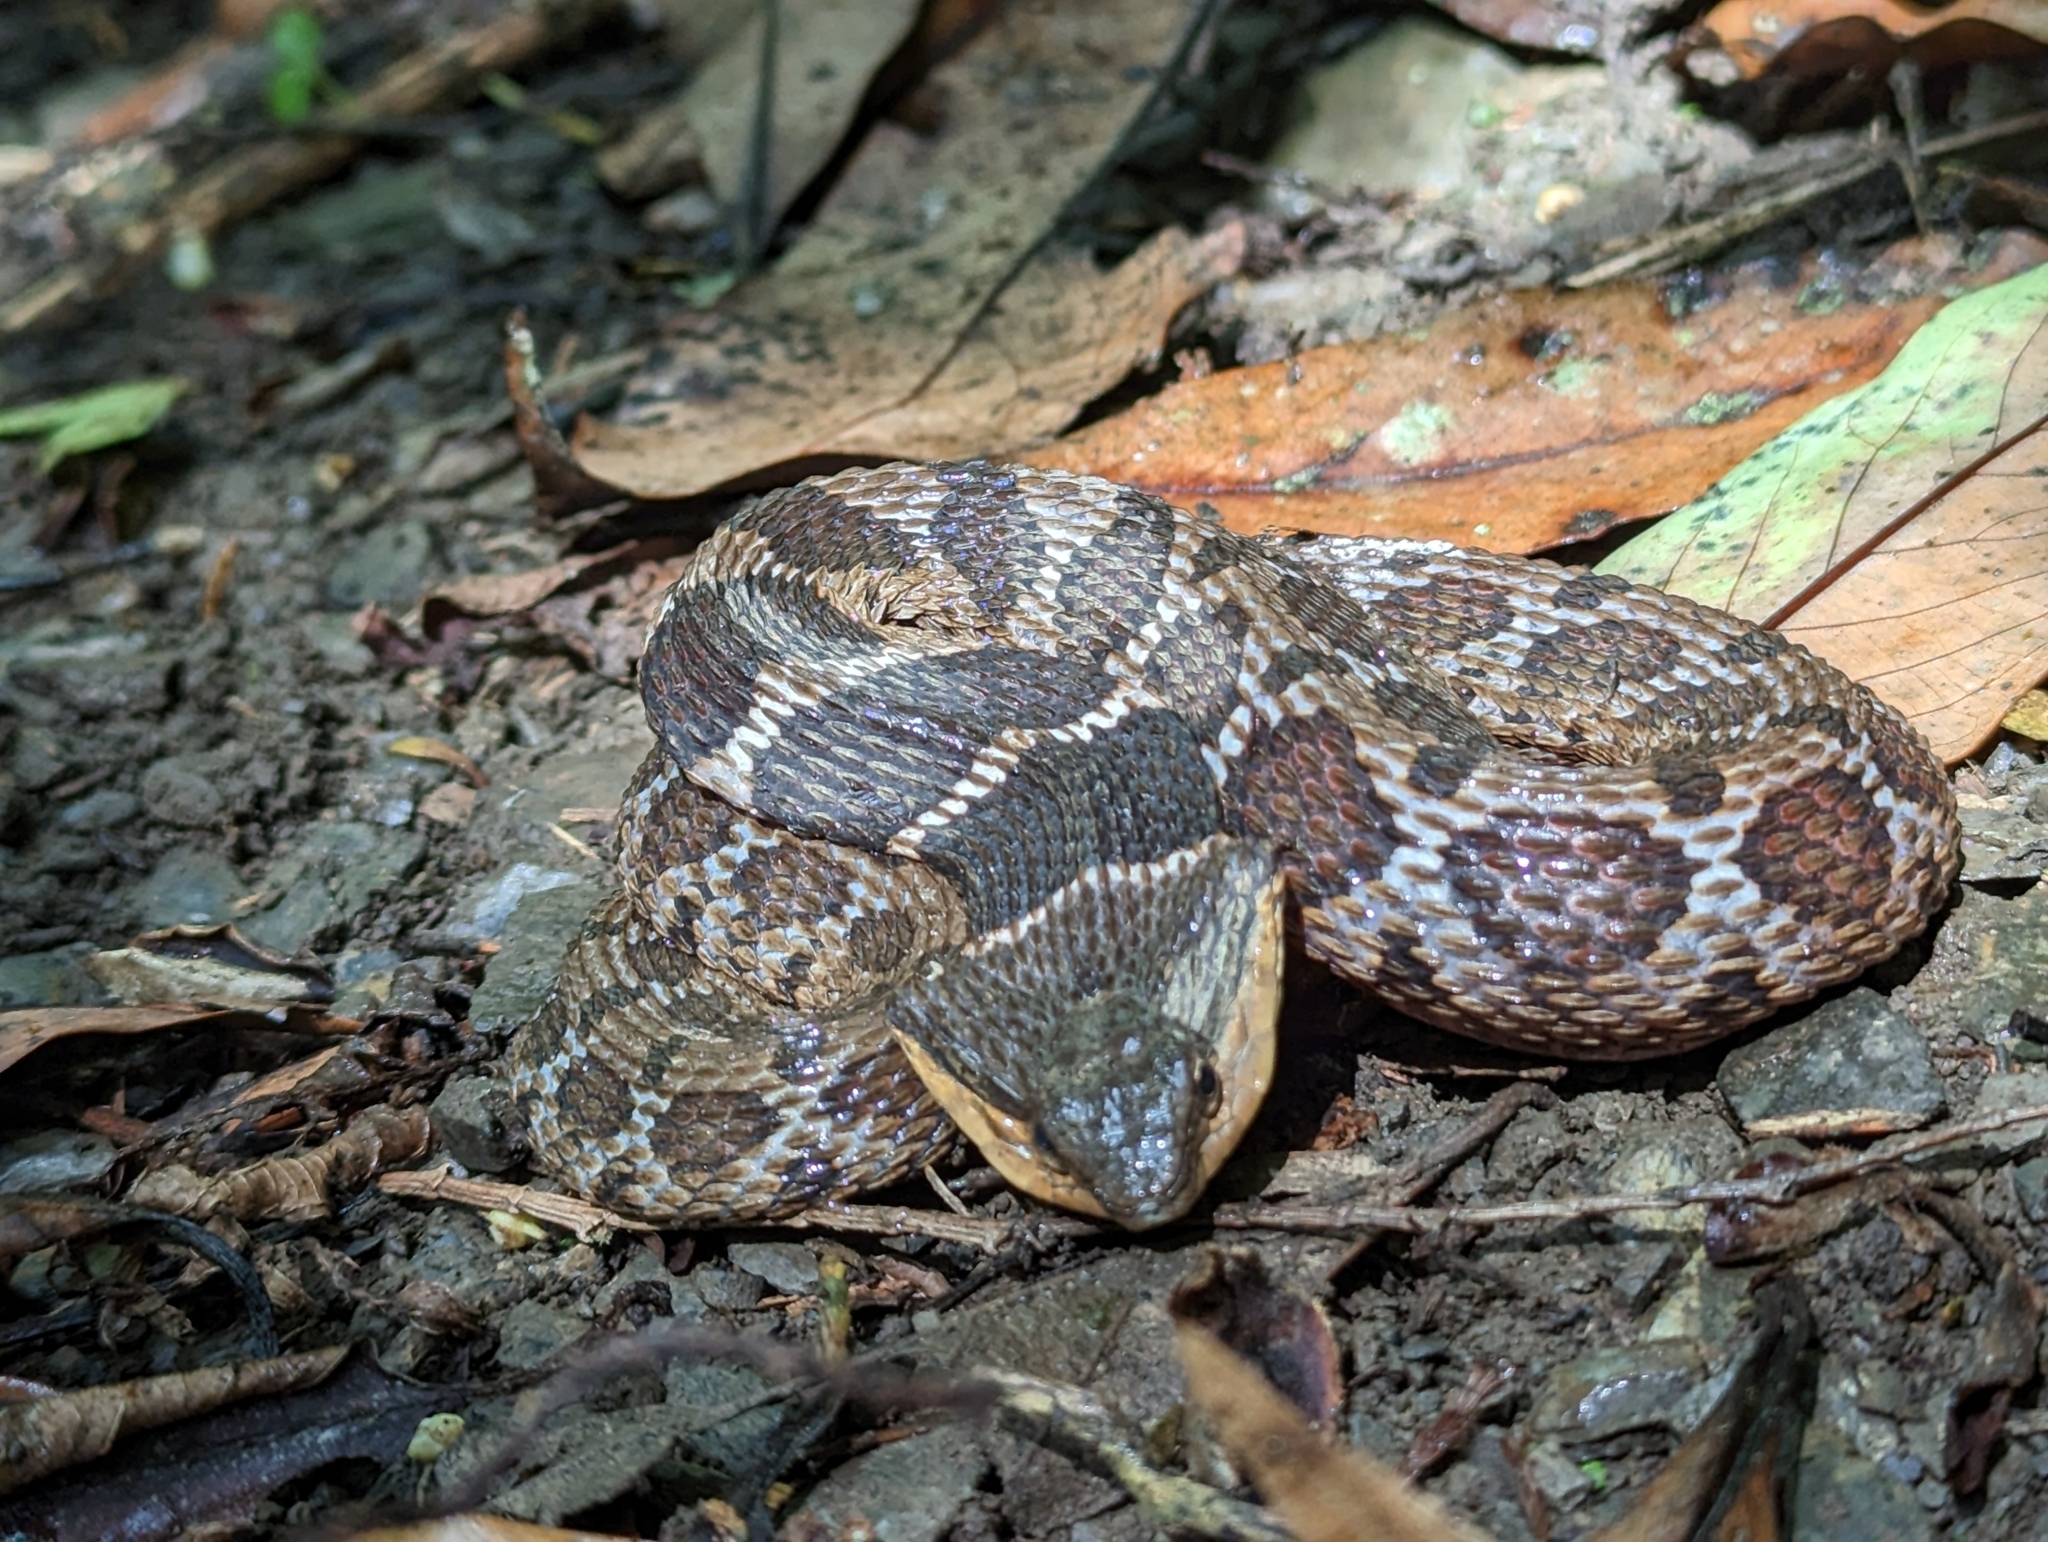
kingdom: Animalia
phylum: Chordata
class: Squamata
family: Colubridae
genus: Pseudagkistrodon
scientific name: Pseudagkistrodon rudis
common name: False habu
